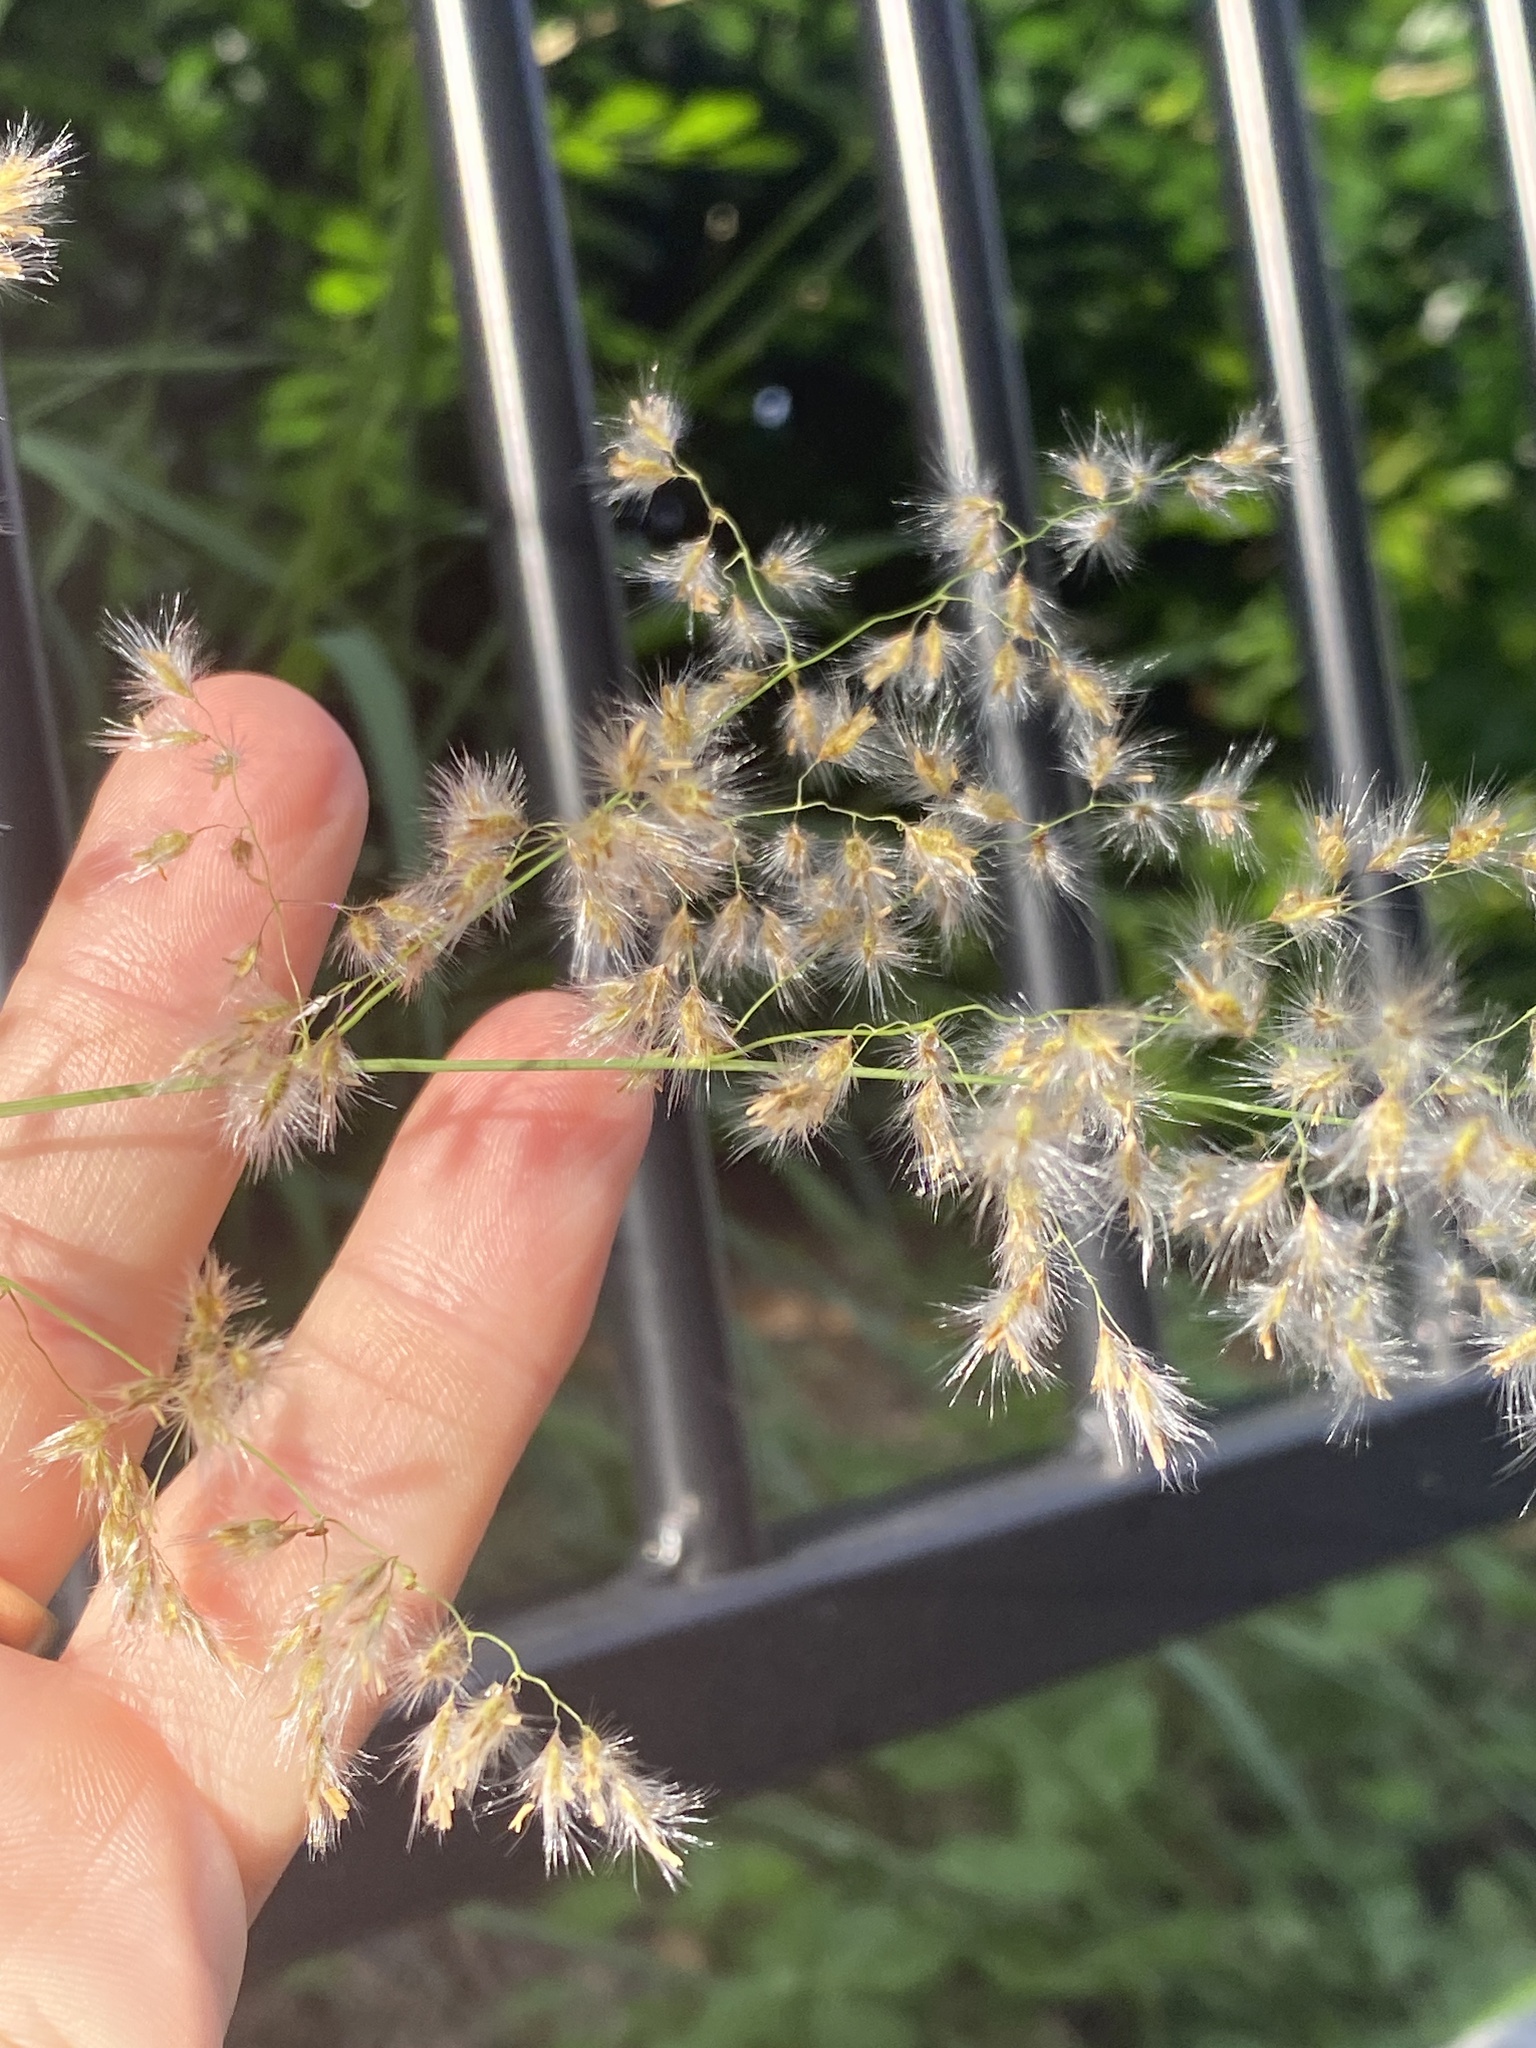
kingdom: Plantae
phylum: Tracheophyta
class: Liliopsida
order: Poales
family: Poaceae
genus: Melinis
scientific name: Melinis repens
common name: Rose natal grass
